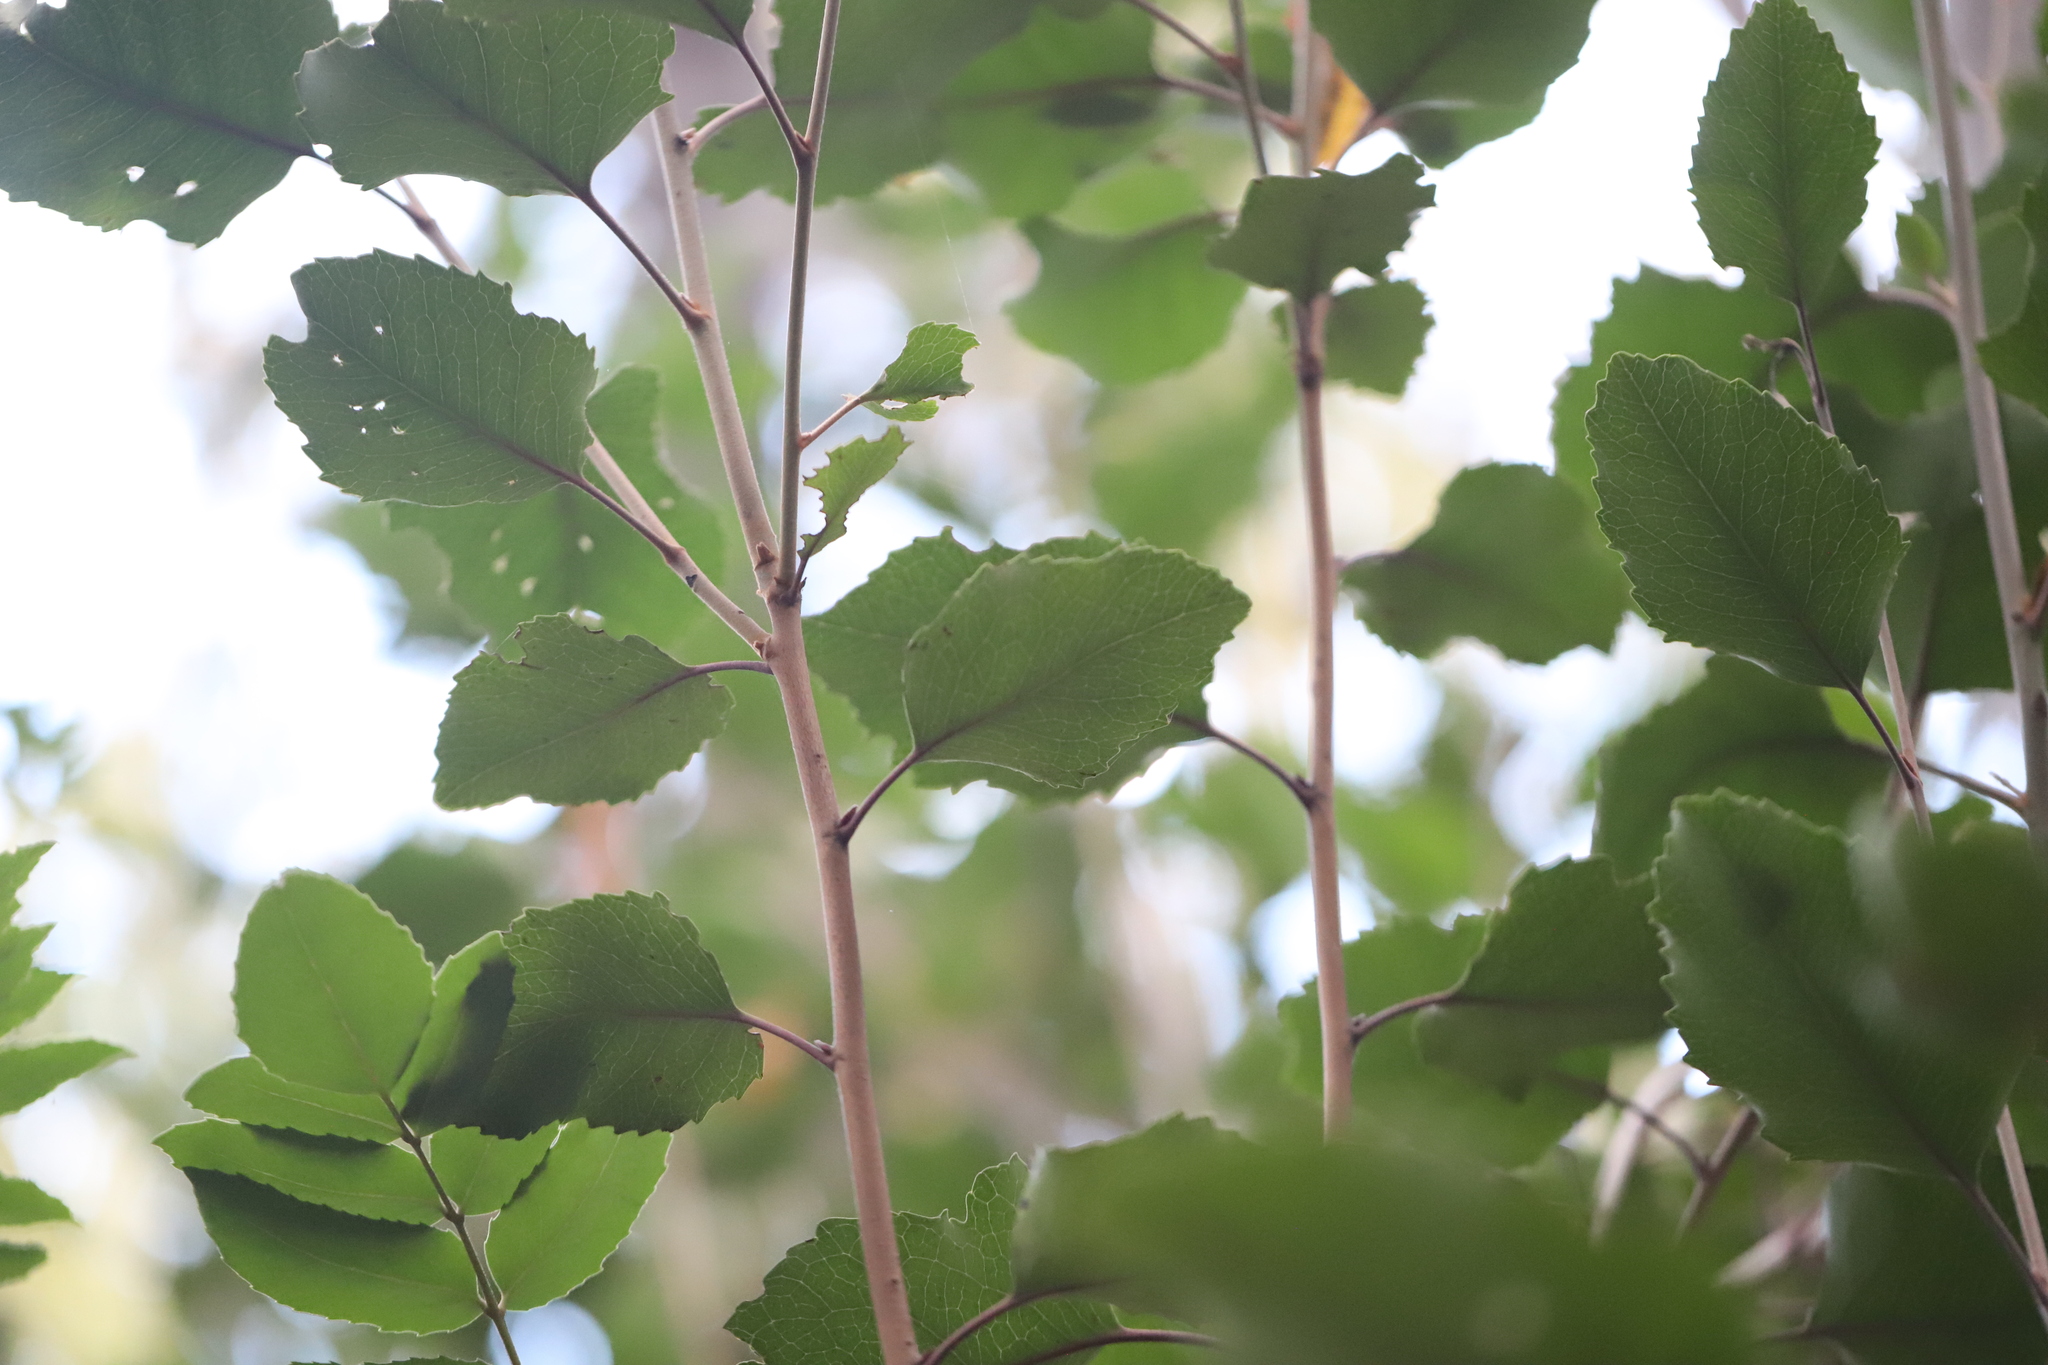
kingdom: Plantae
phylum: Tracheophyta
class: Magnoliopsida
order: Proteales
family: Proteaceae
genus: Lomatia
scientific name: Lomatia hirsuta
